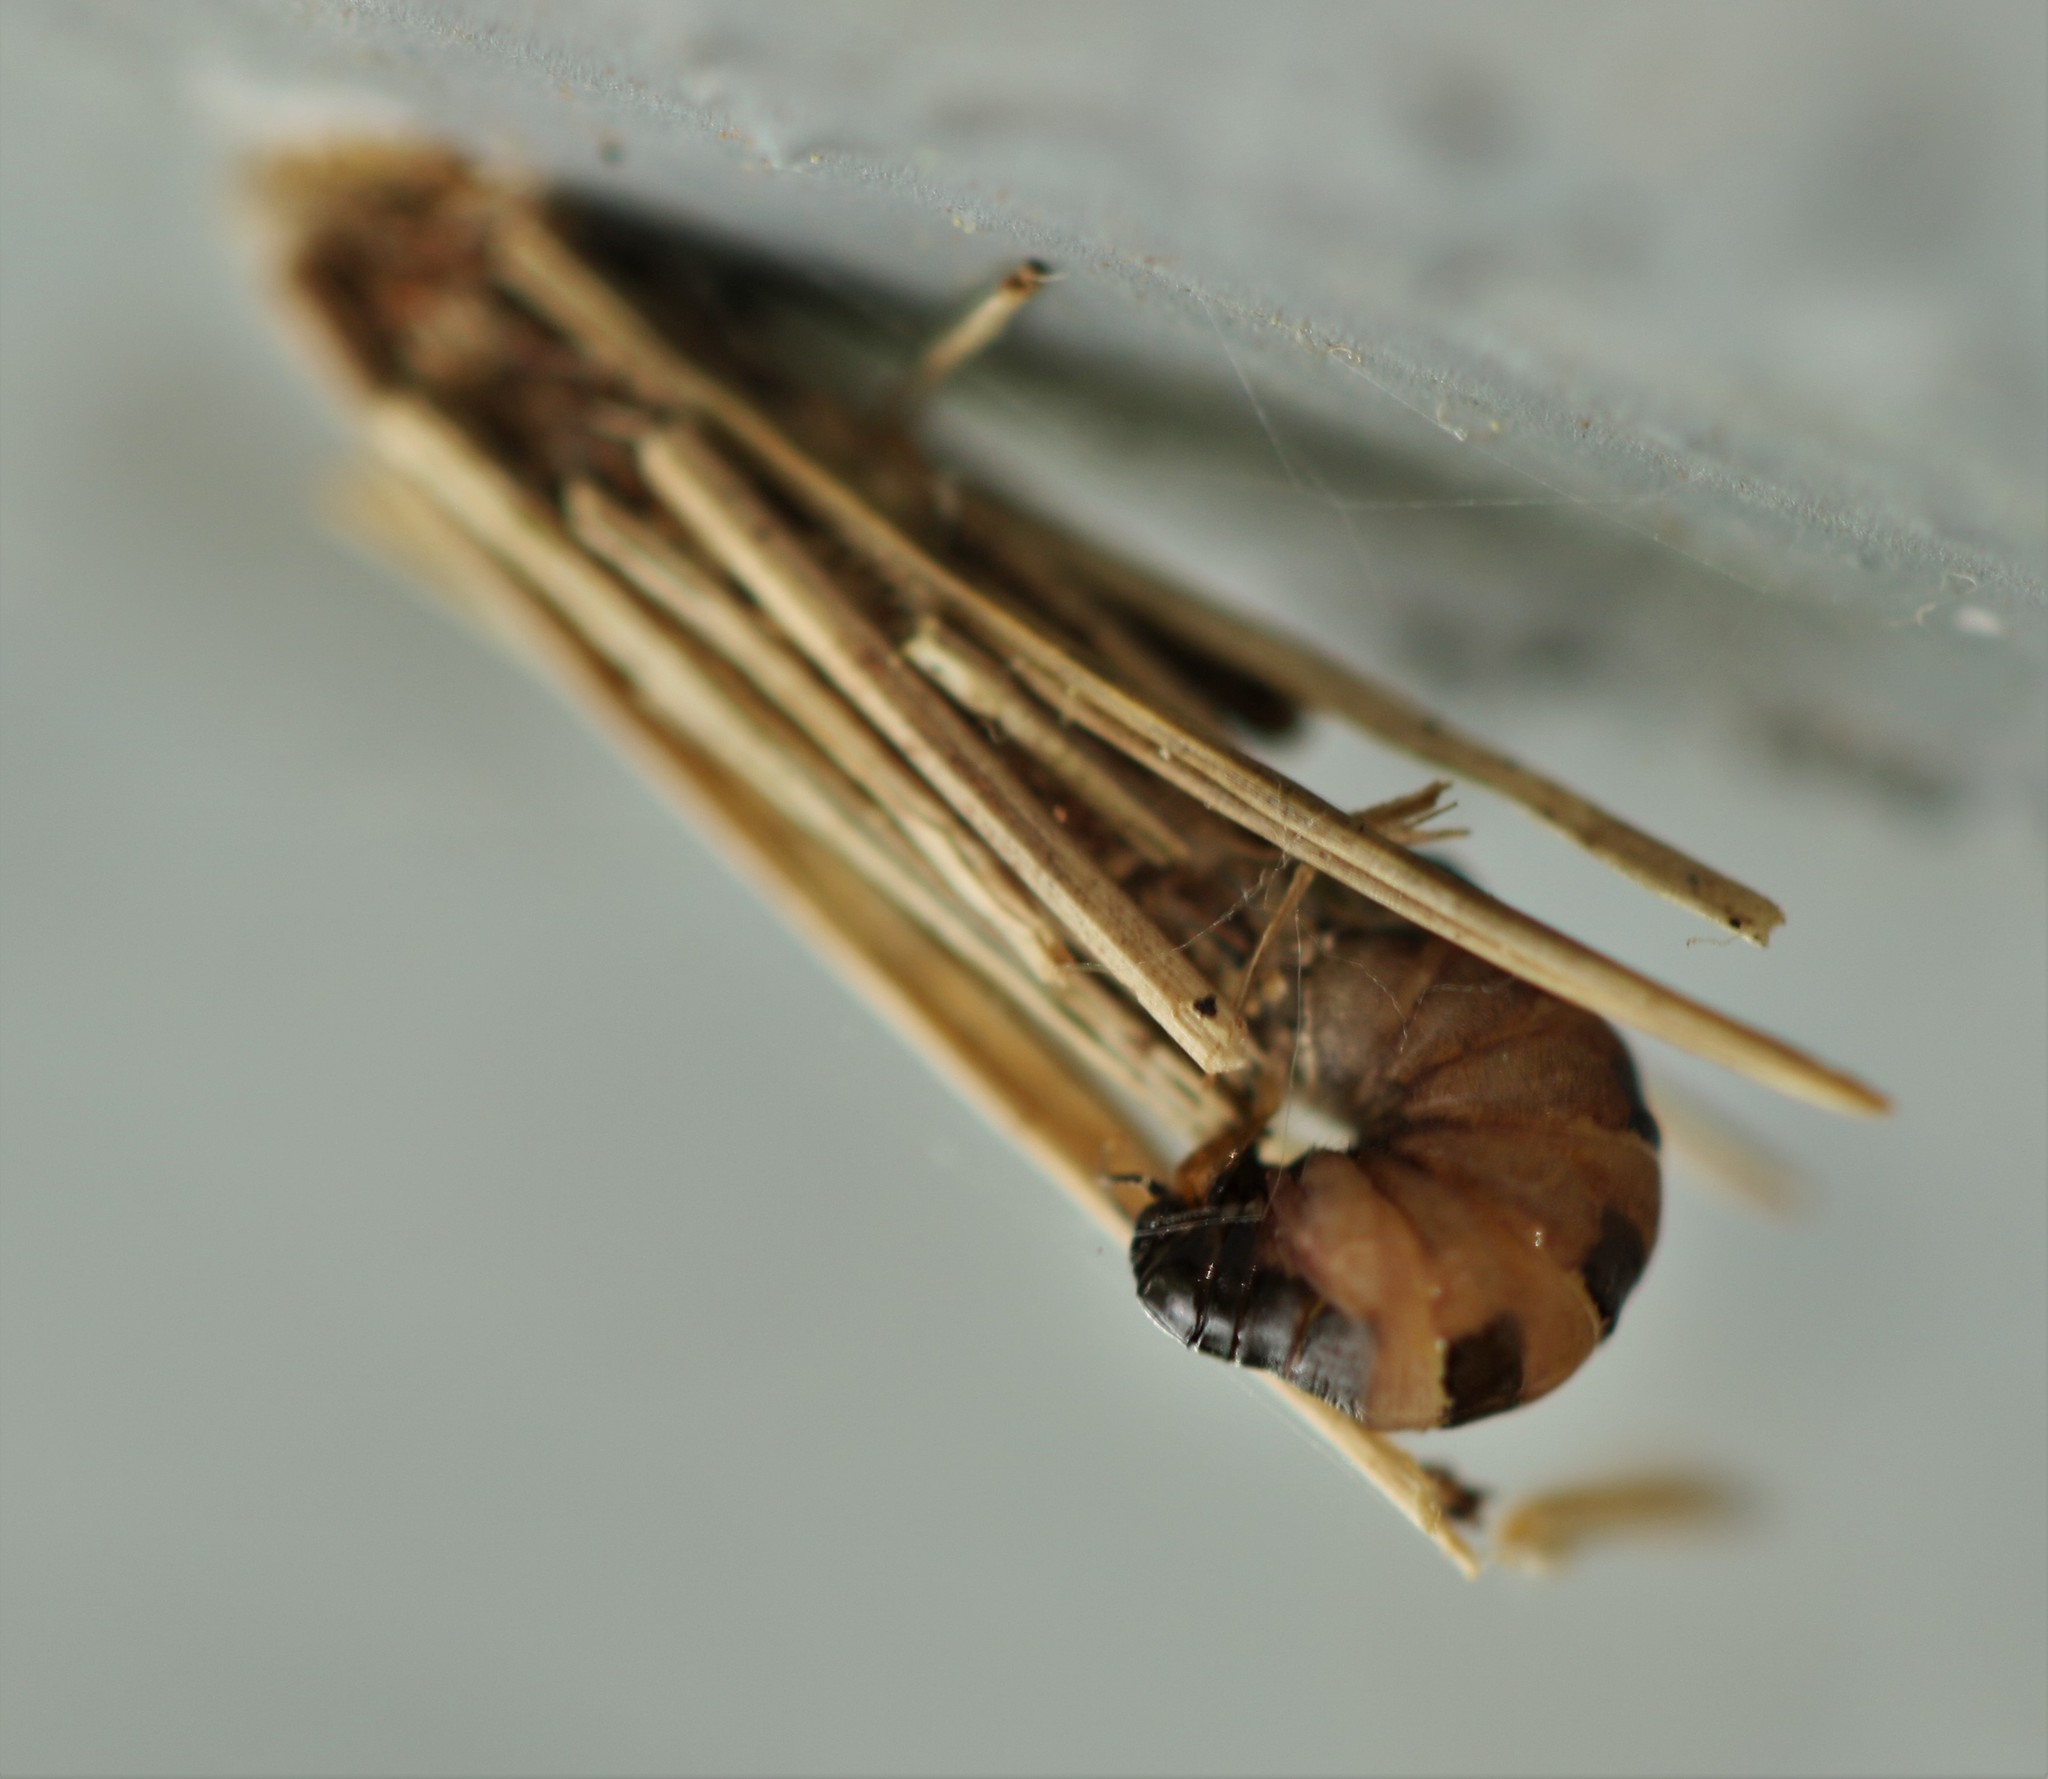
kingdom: Animalia
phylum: Arthropoda
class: Insecta
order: Lepidoptera
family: Psychidae
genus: Psyche
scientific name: Psyche casta
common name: Common sweep
